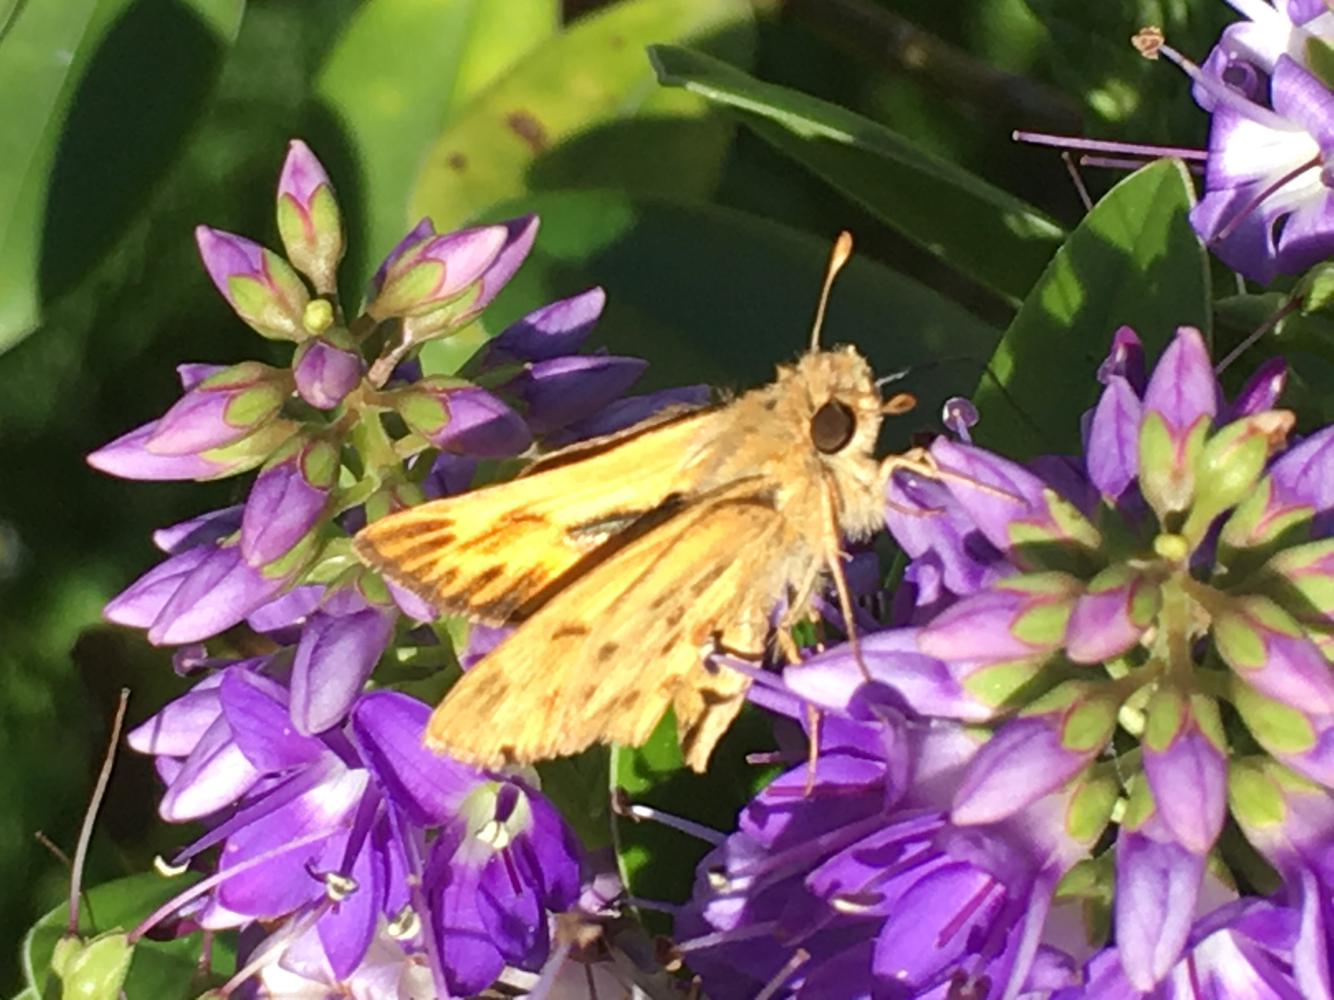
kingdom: Animalia
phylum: Arthropoda
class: Insecta
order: Lepidoptera
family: Hesperiidae
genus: Hylephila
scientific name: Hylephila phyleus
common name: Fiery skipper
